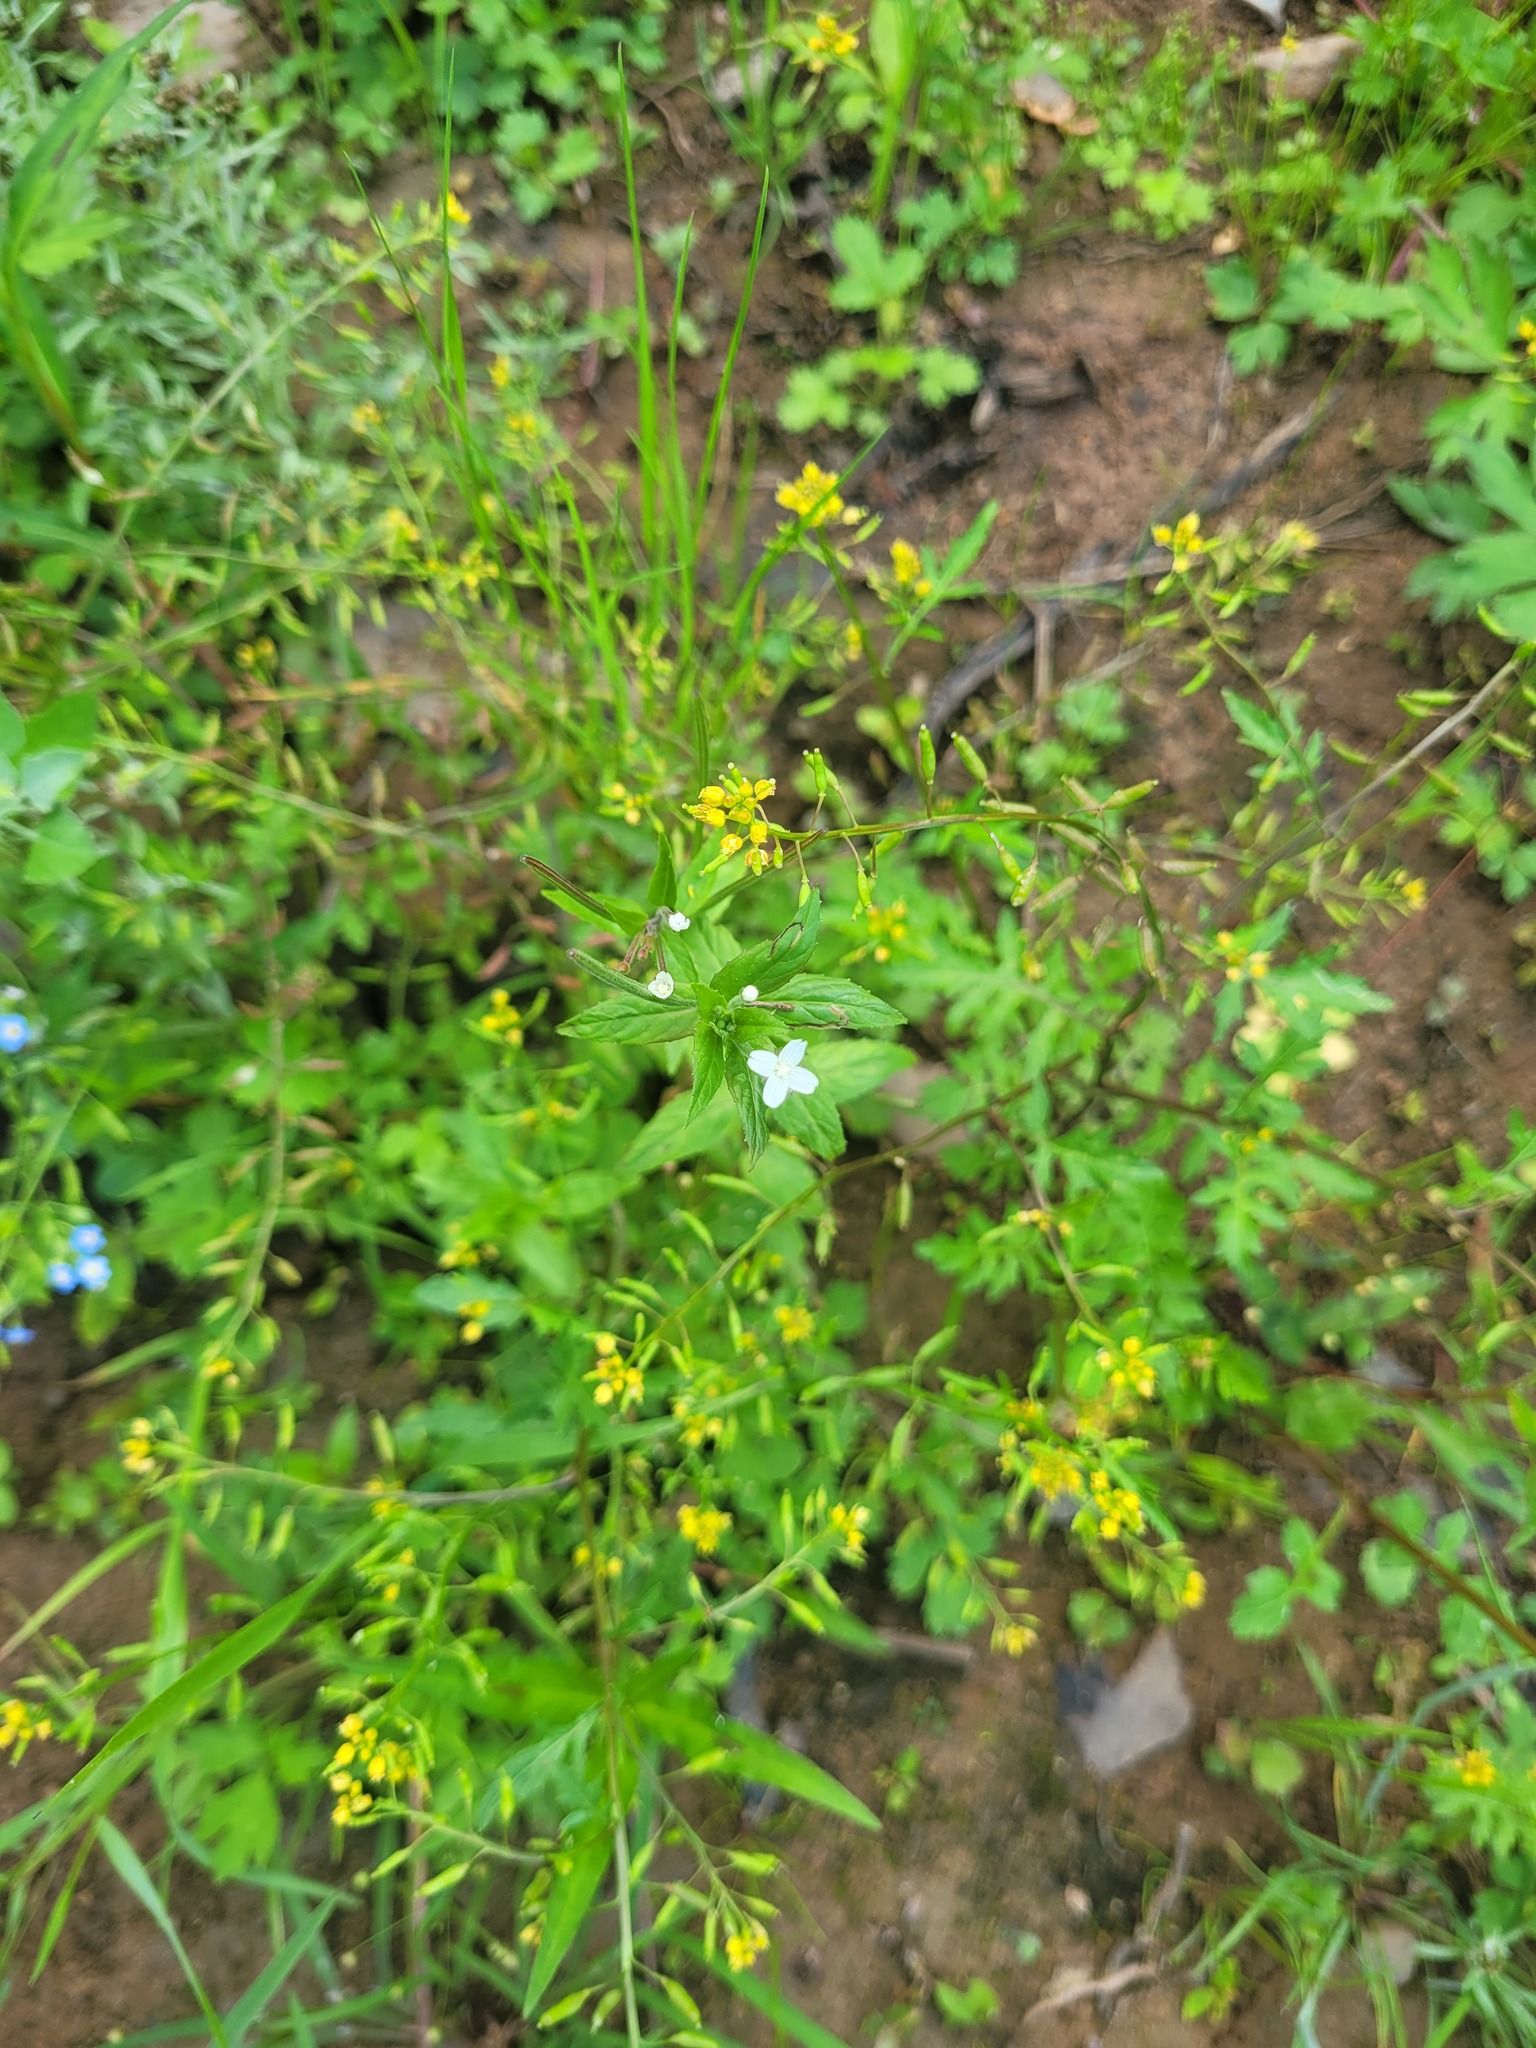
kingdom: Plantae
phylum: Tracheophyta
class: Magnoliopsida
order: Brassicales
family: Brassicaceae
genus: Rorippa
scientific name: Rorippa palustris
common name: Marsh yellow-cress
